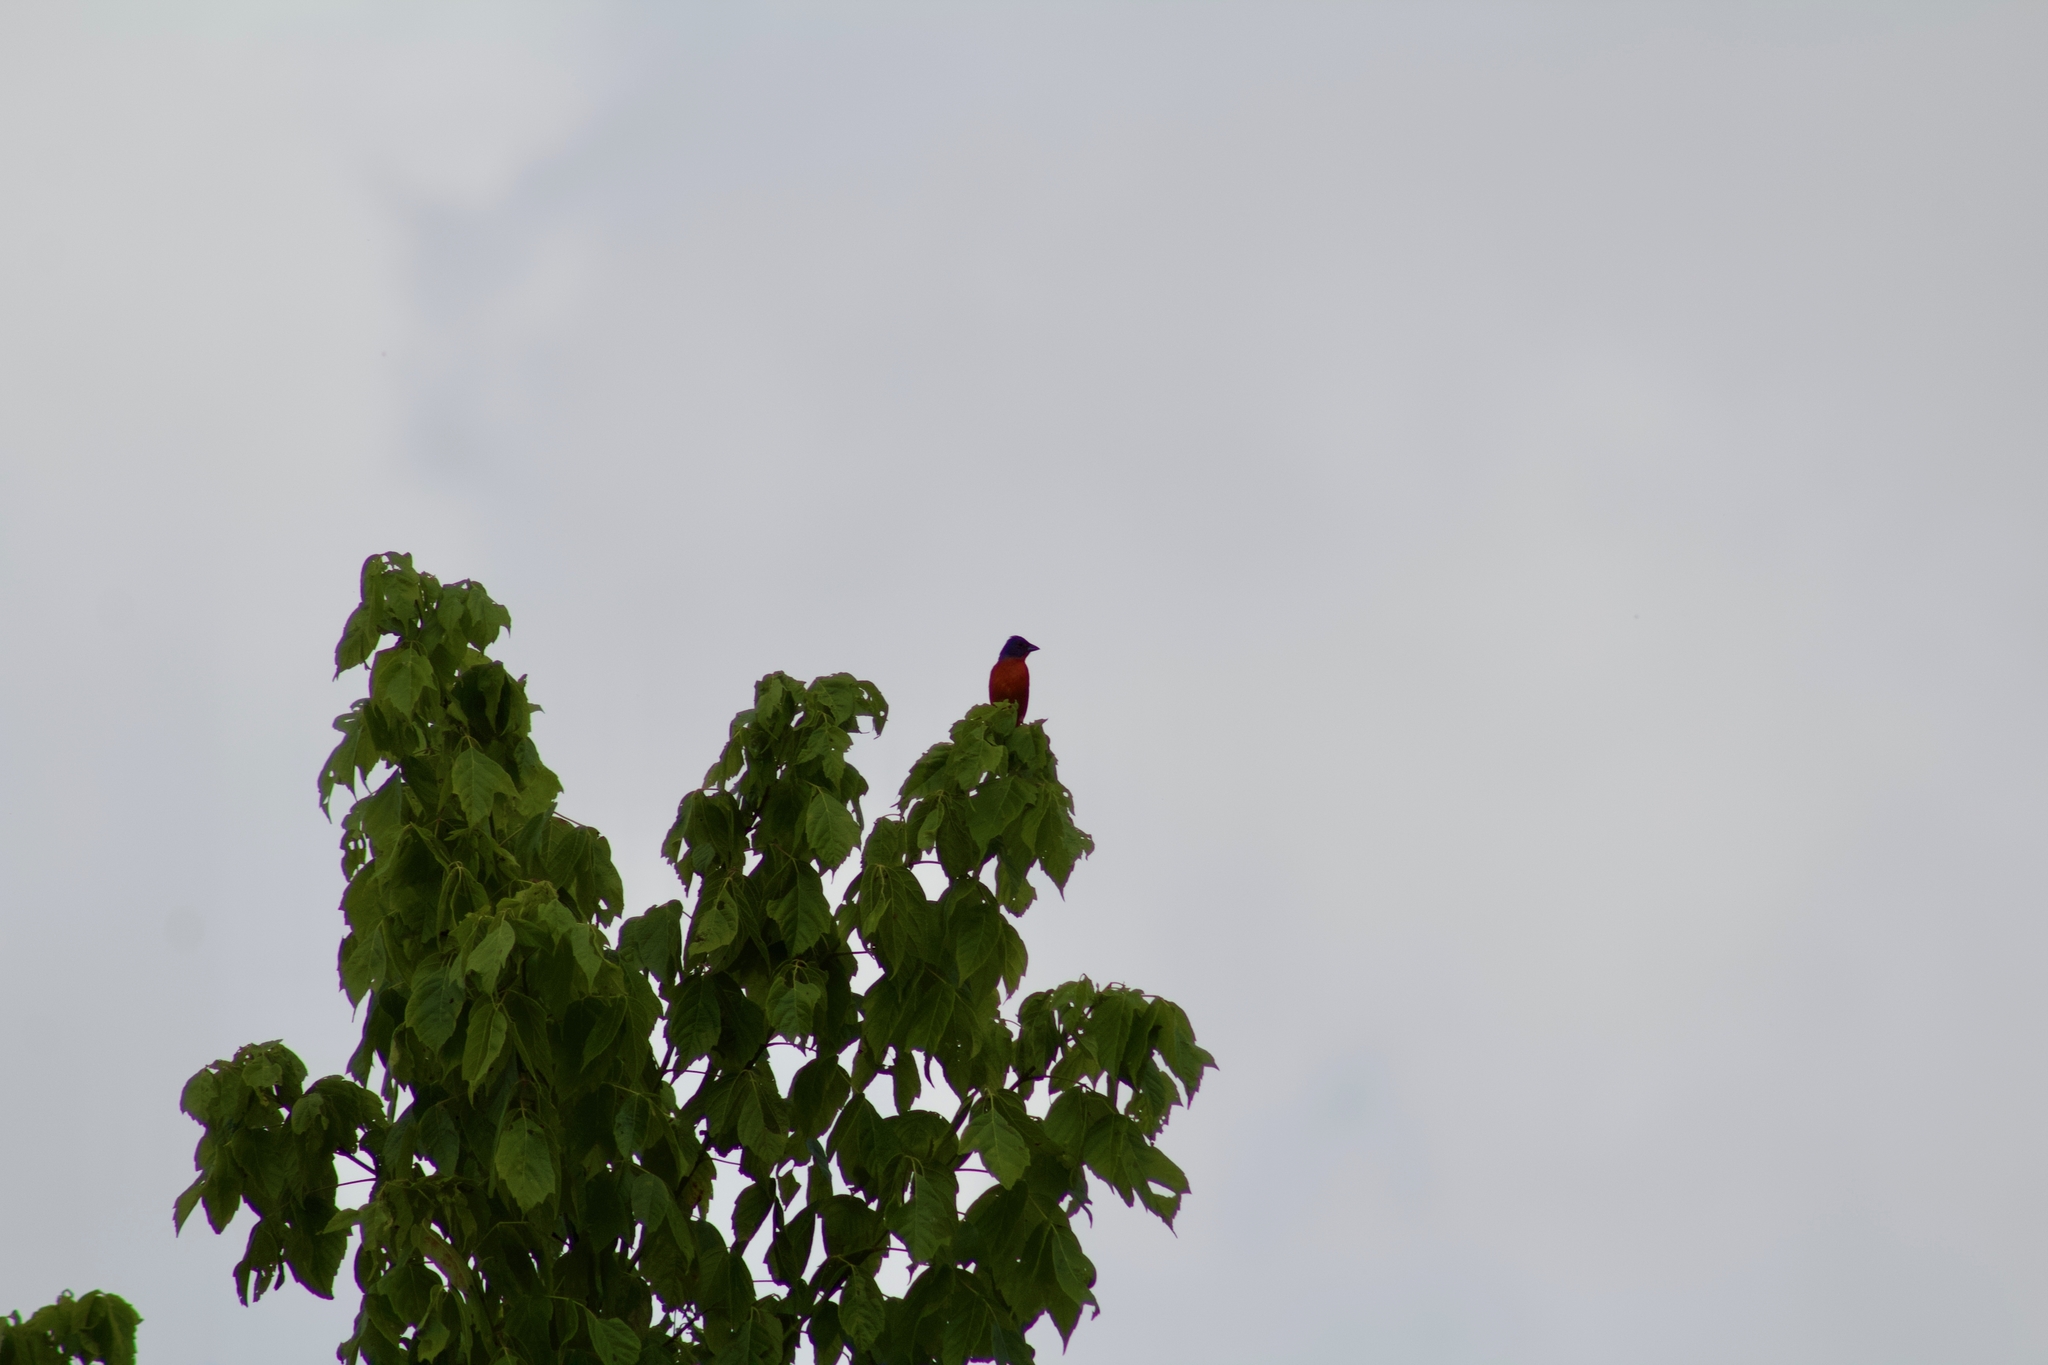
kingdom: Animalia
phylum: Chordata
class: Aves
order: Passeriformes
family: Cardinalidae
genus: Passerina
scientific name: Passerina ciris
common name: Painted bunting
